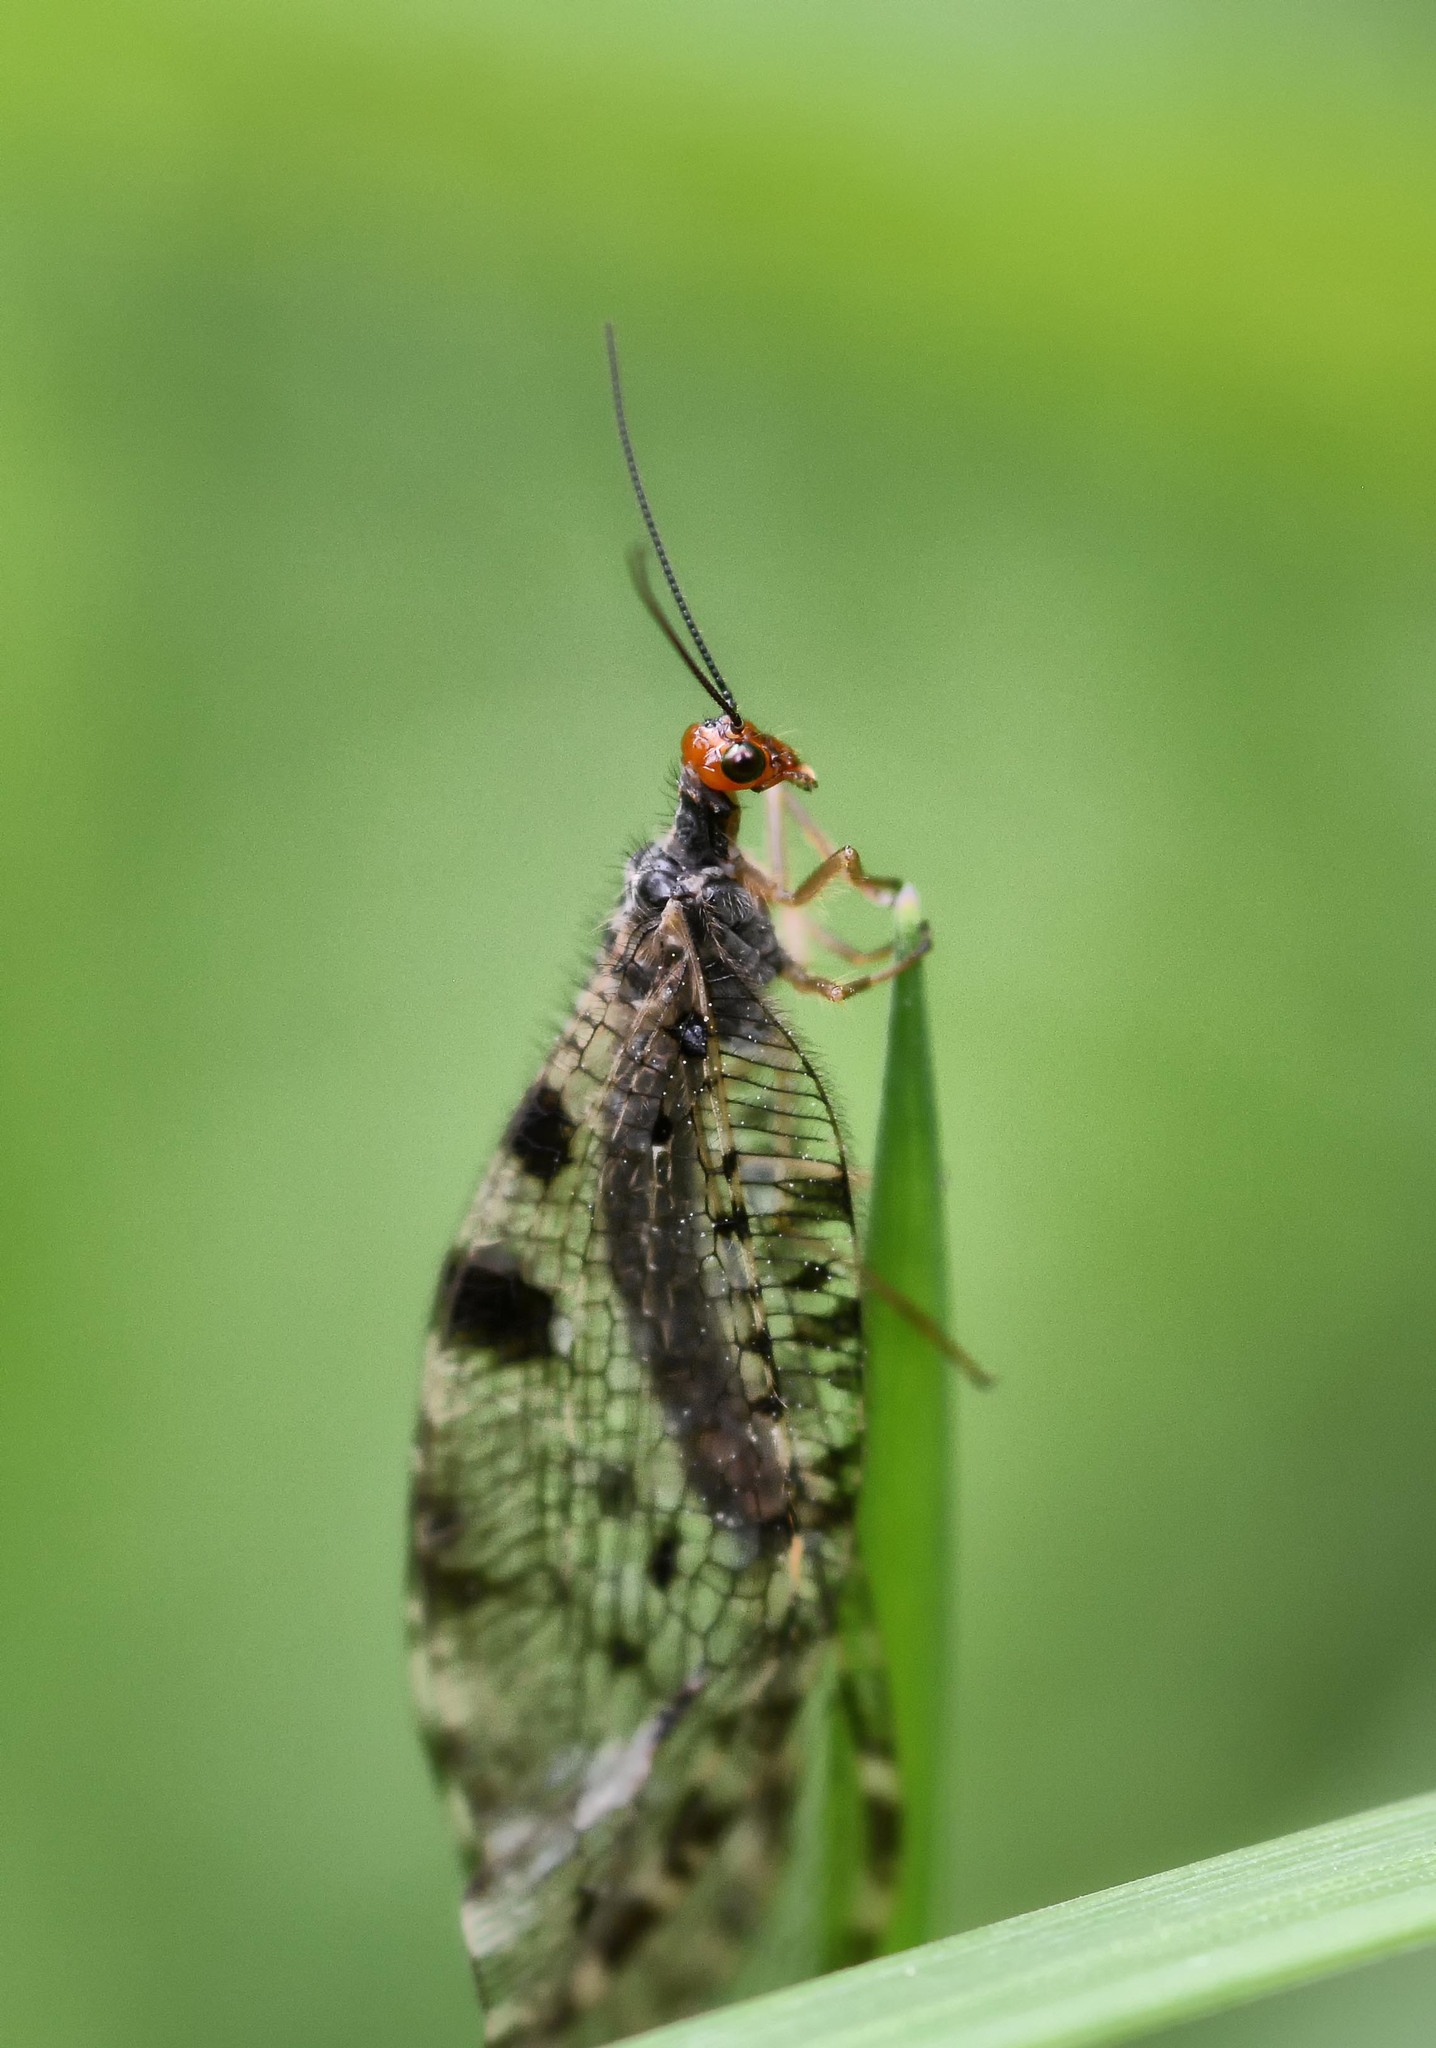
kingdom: Animalia
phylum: Arthropoda
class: Insecta
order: Neuroptera
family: Osmylidae
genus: Osmylus
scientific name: Osmylus fulvicephalus
